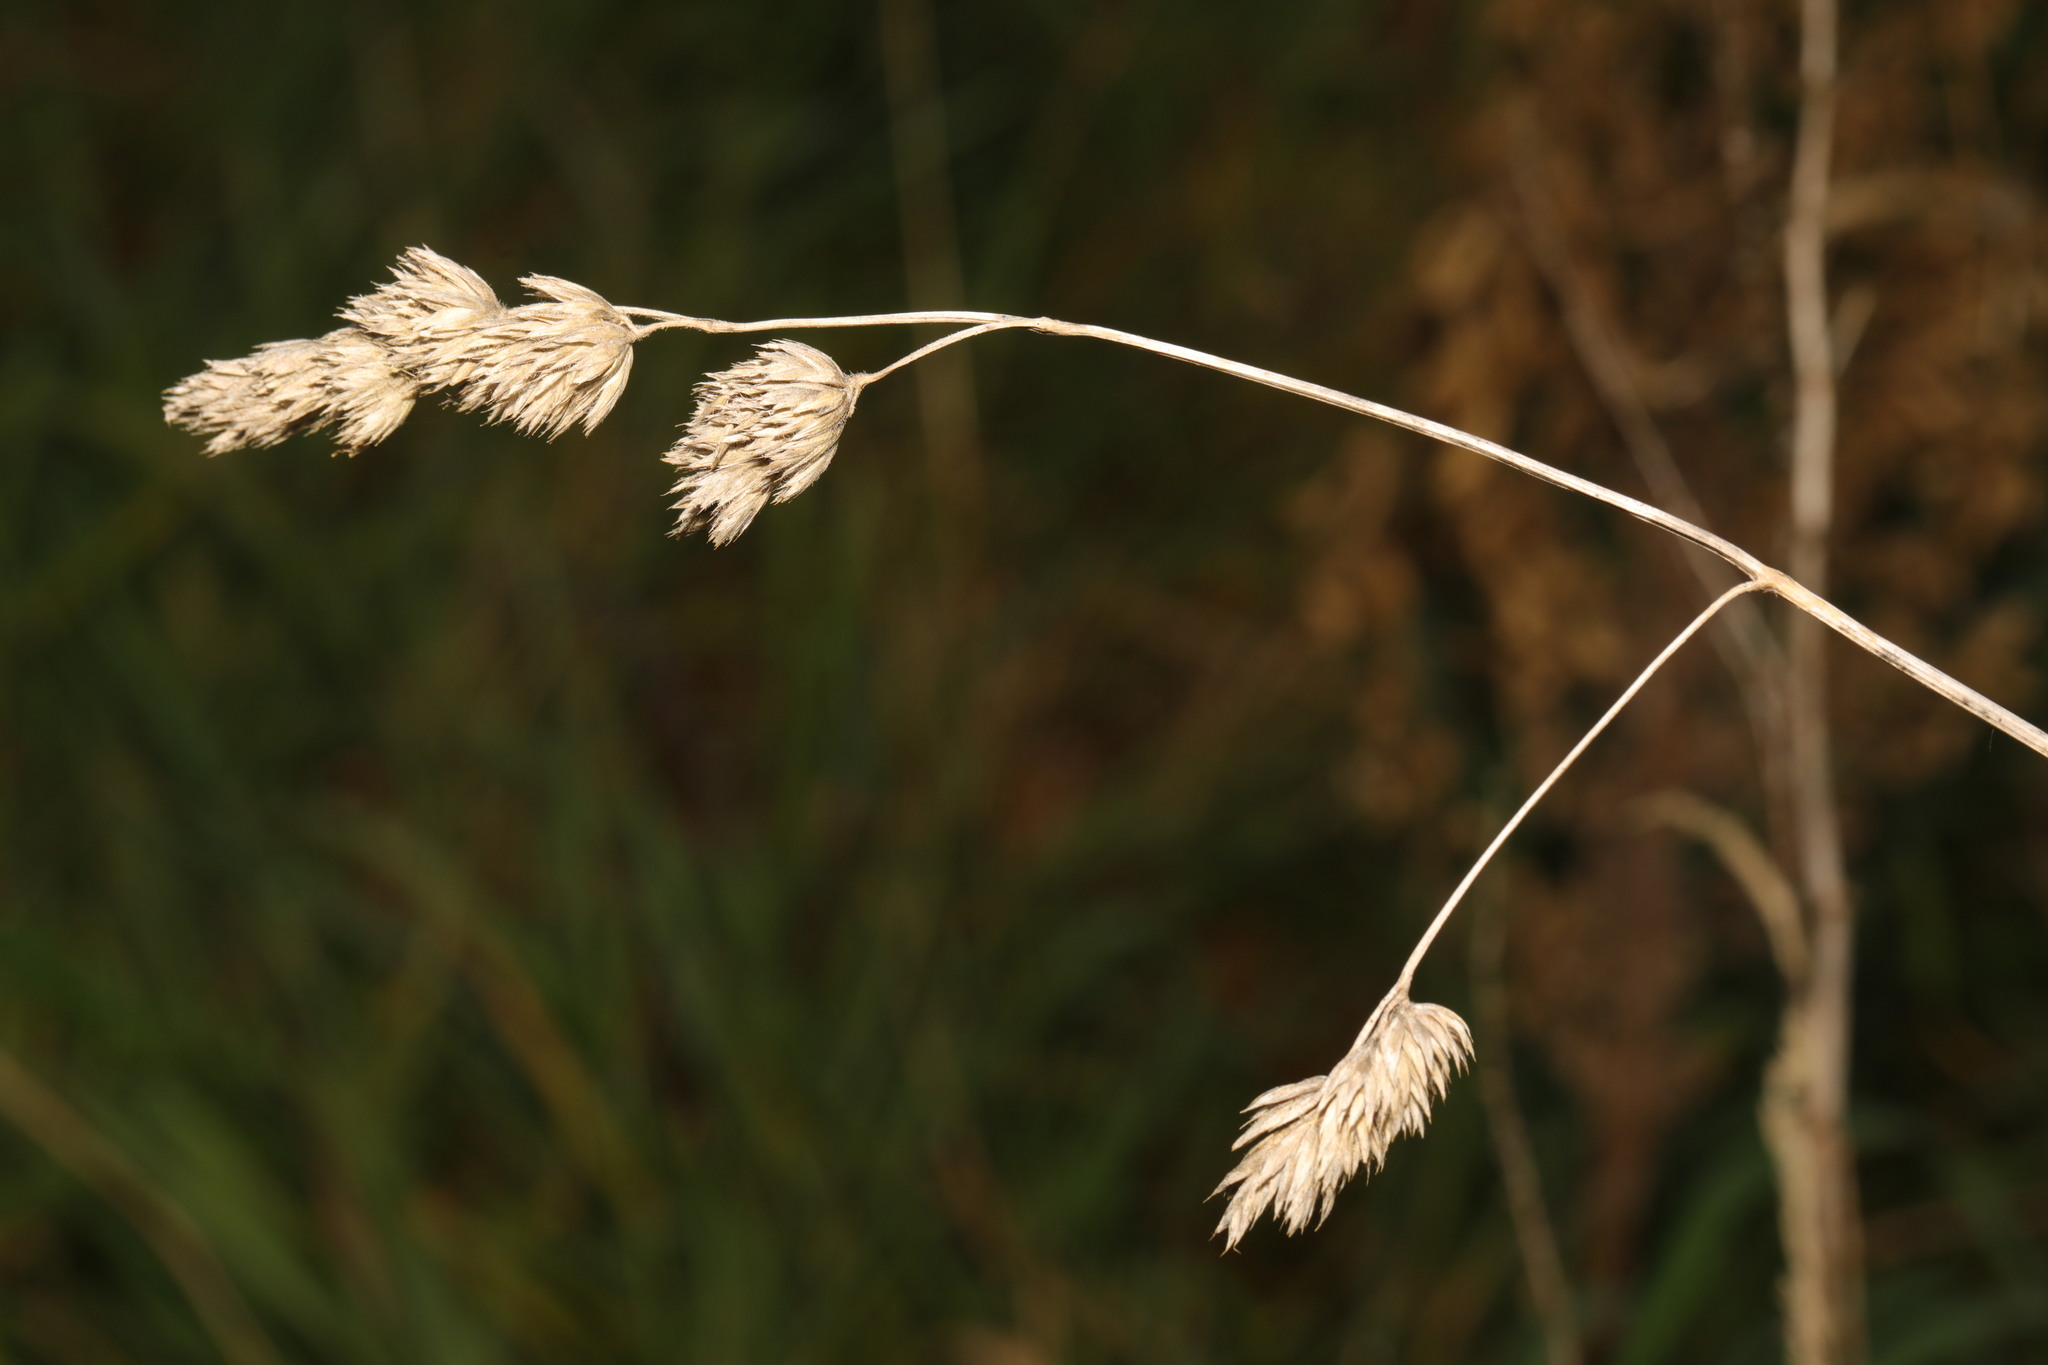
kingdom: Plantae
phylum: Tracheophyta
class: Liliopsida
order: Poales
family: Poaceae
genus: Dactylis
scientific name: Dactylis glomerata
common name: Orchardgrass
